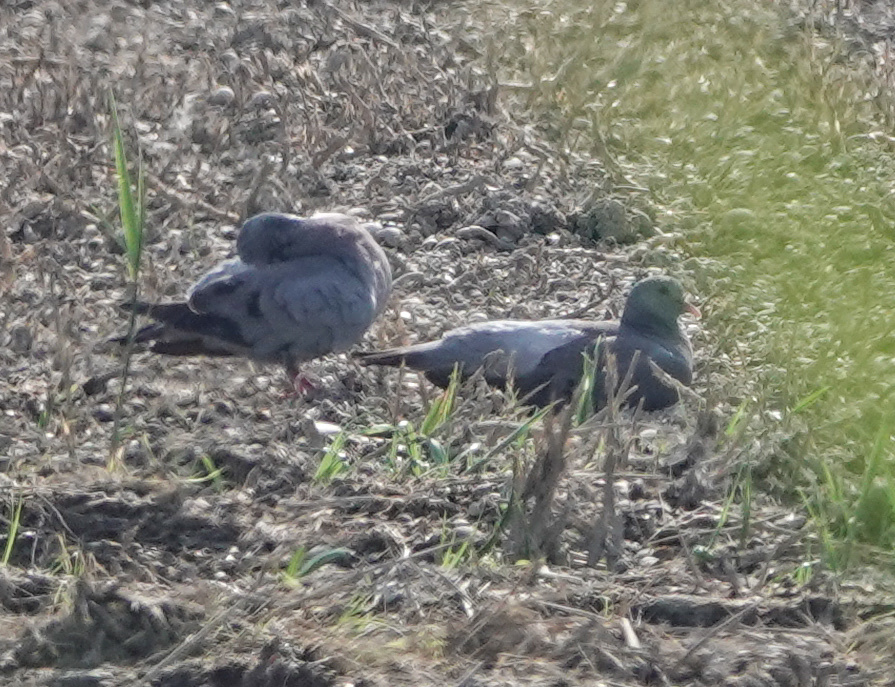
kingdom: Animalia
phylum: Chordata
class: Aves
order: Columbiformes
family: Columbidae
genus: Columba
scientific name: Columba oenas
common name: Stock dove
